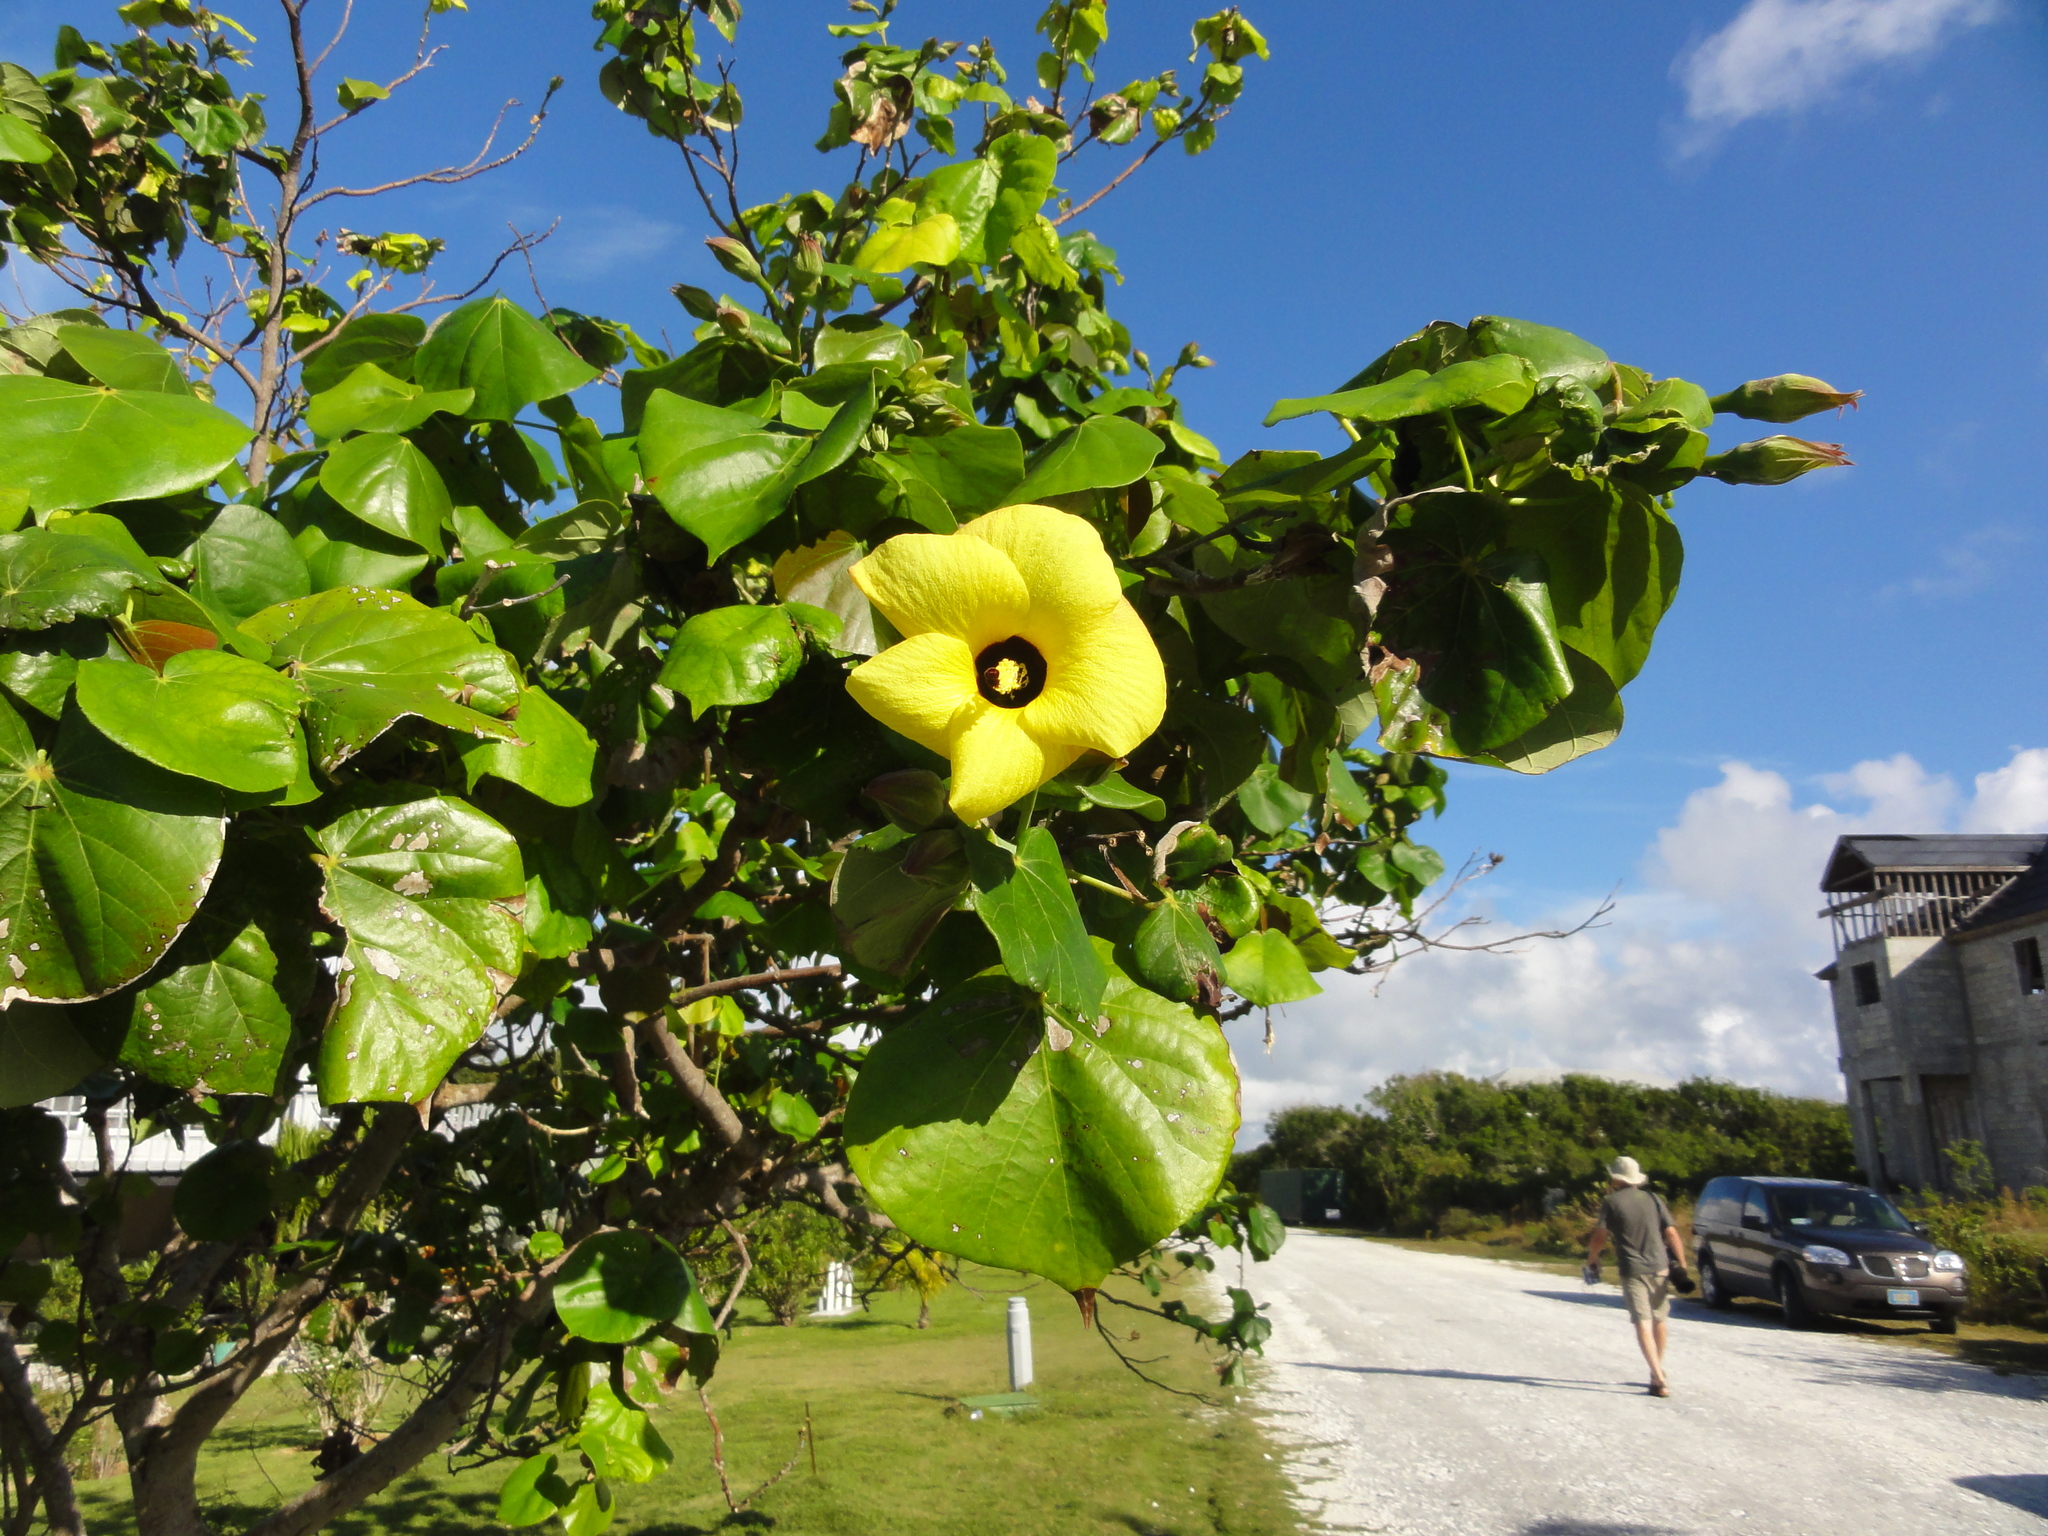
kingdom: Plantae
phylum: Tracheophyta
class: Magnoliopsida
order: Malvales
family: Malvaceae
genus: Talipariti
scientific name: Talipariti tiliaceum
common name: Sea hibiscus
